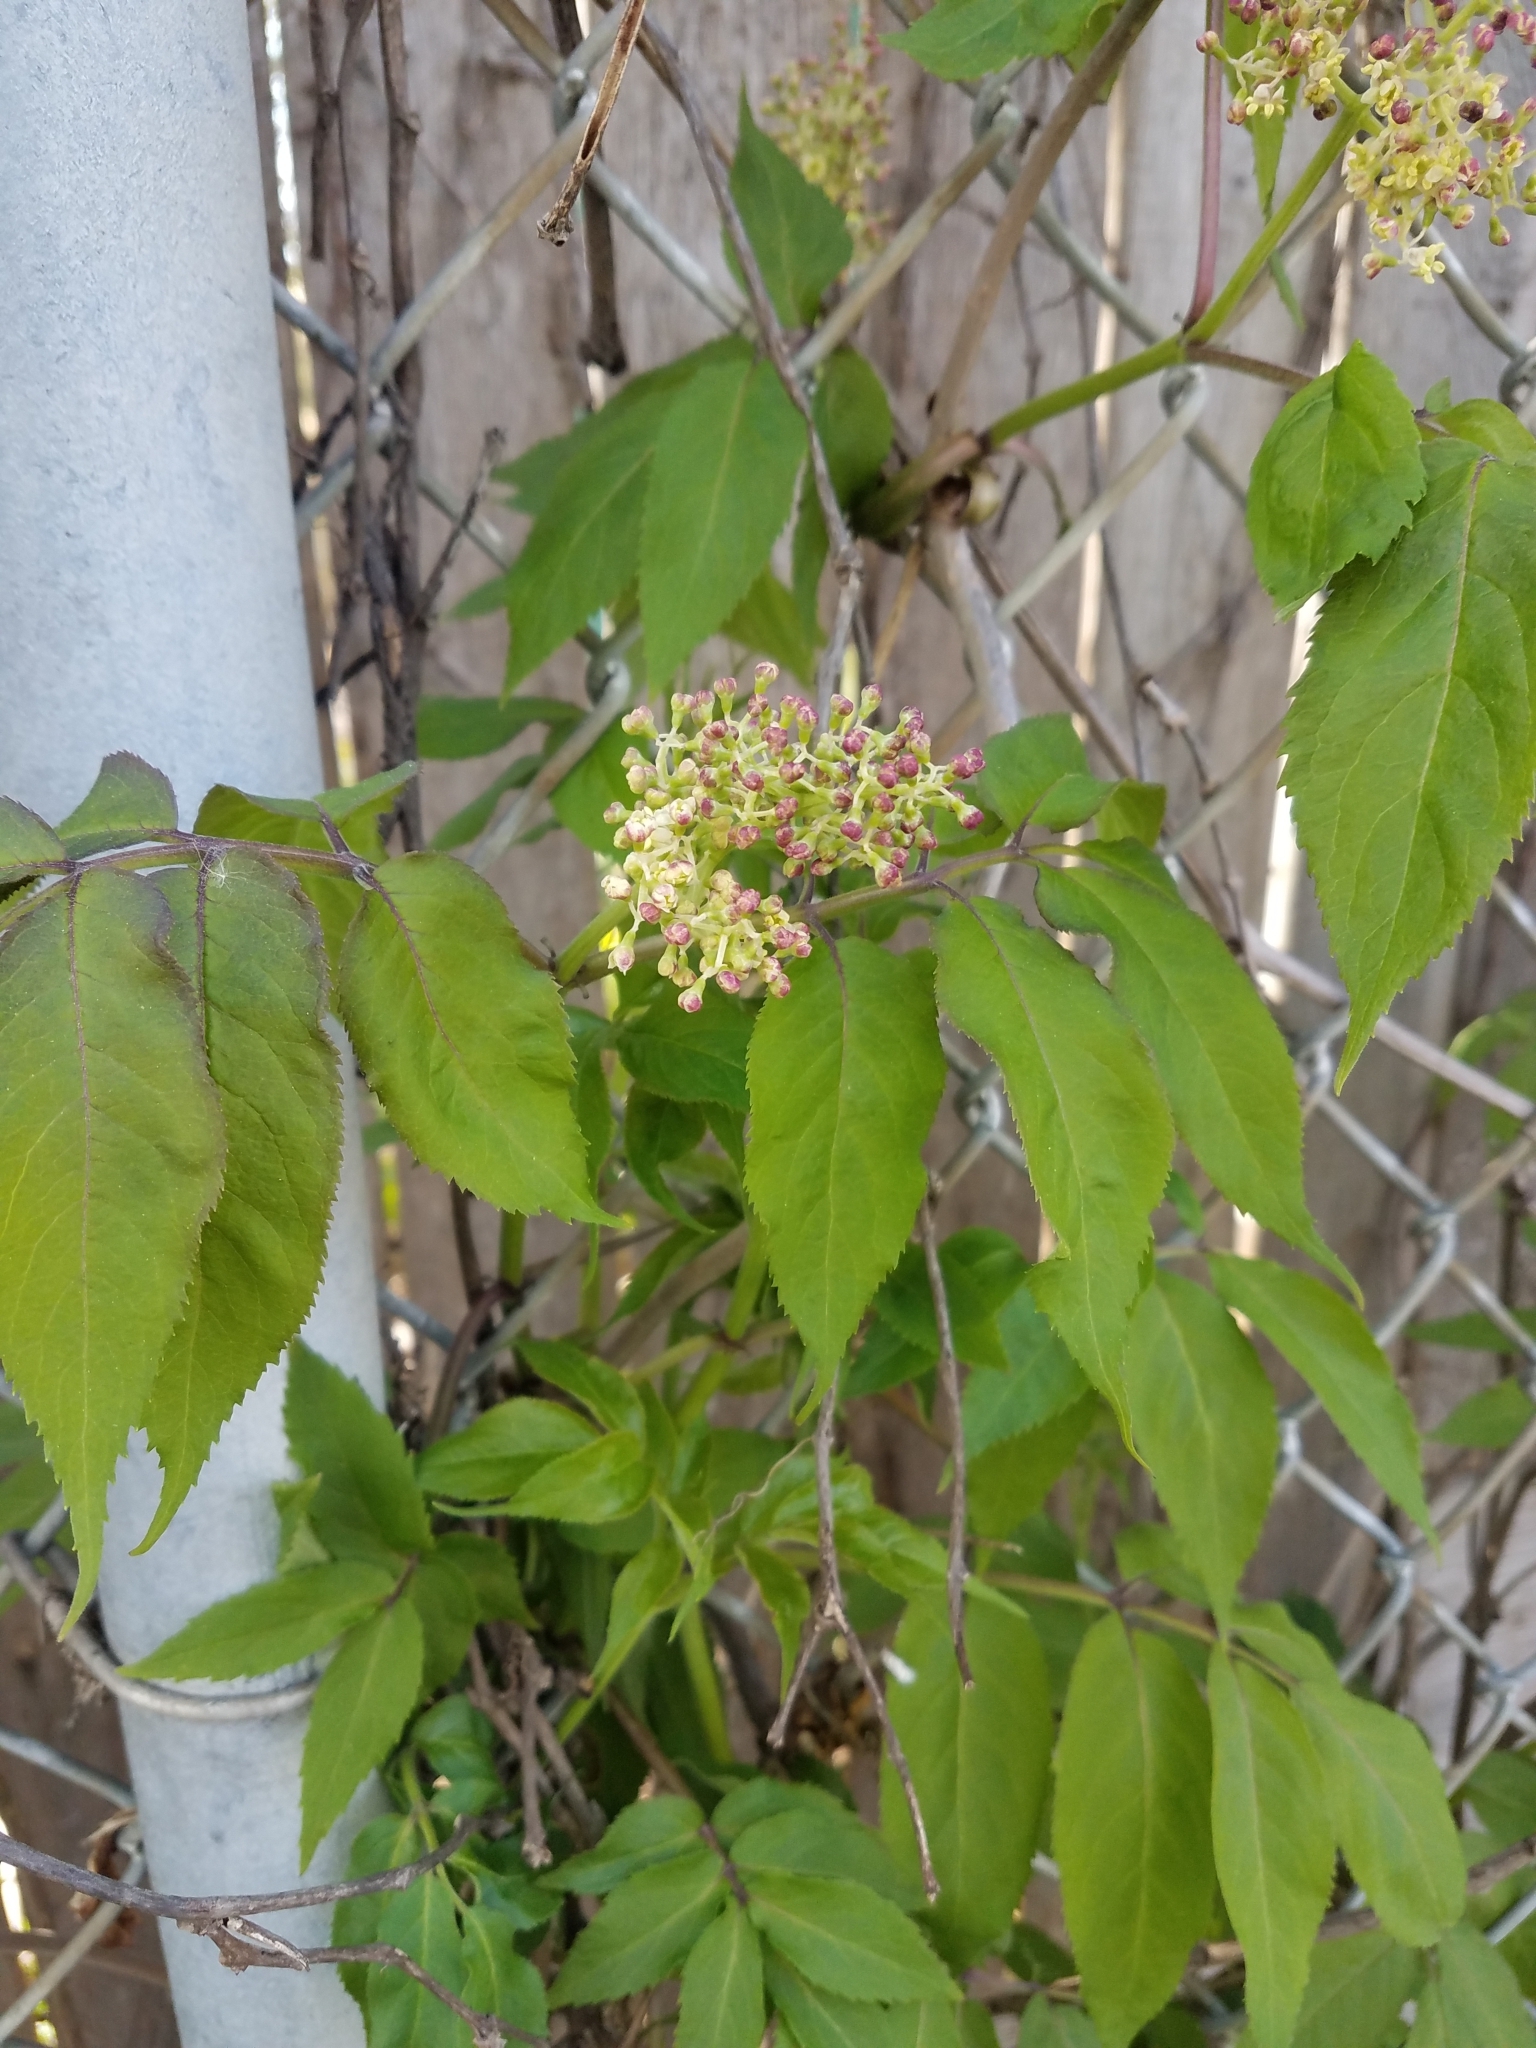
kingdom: Plantae
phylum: Tracheophyta
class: Magnoliopsida
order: Dipsacales
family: Viburnaceae
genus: Sambucus
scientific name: Sambucus racemosa
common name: Red-berried elder
